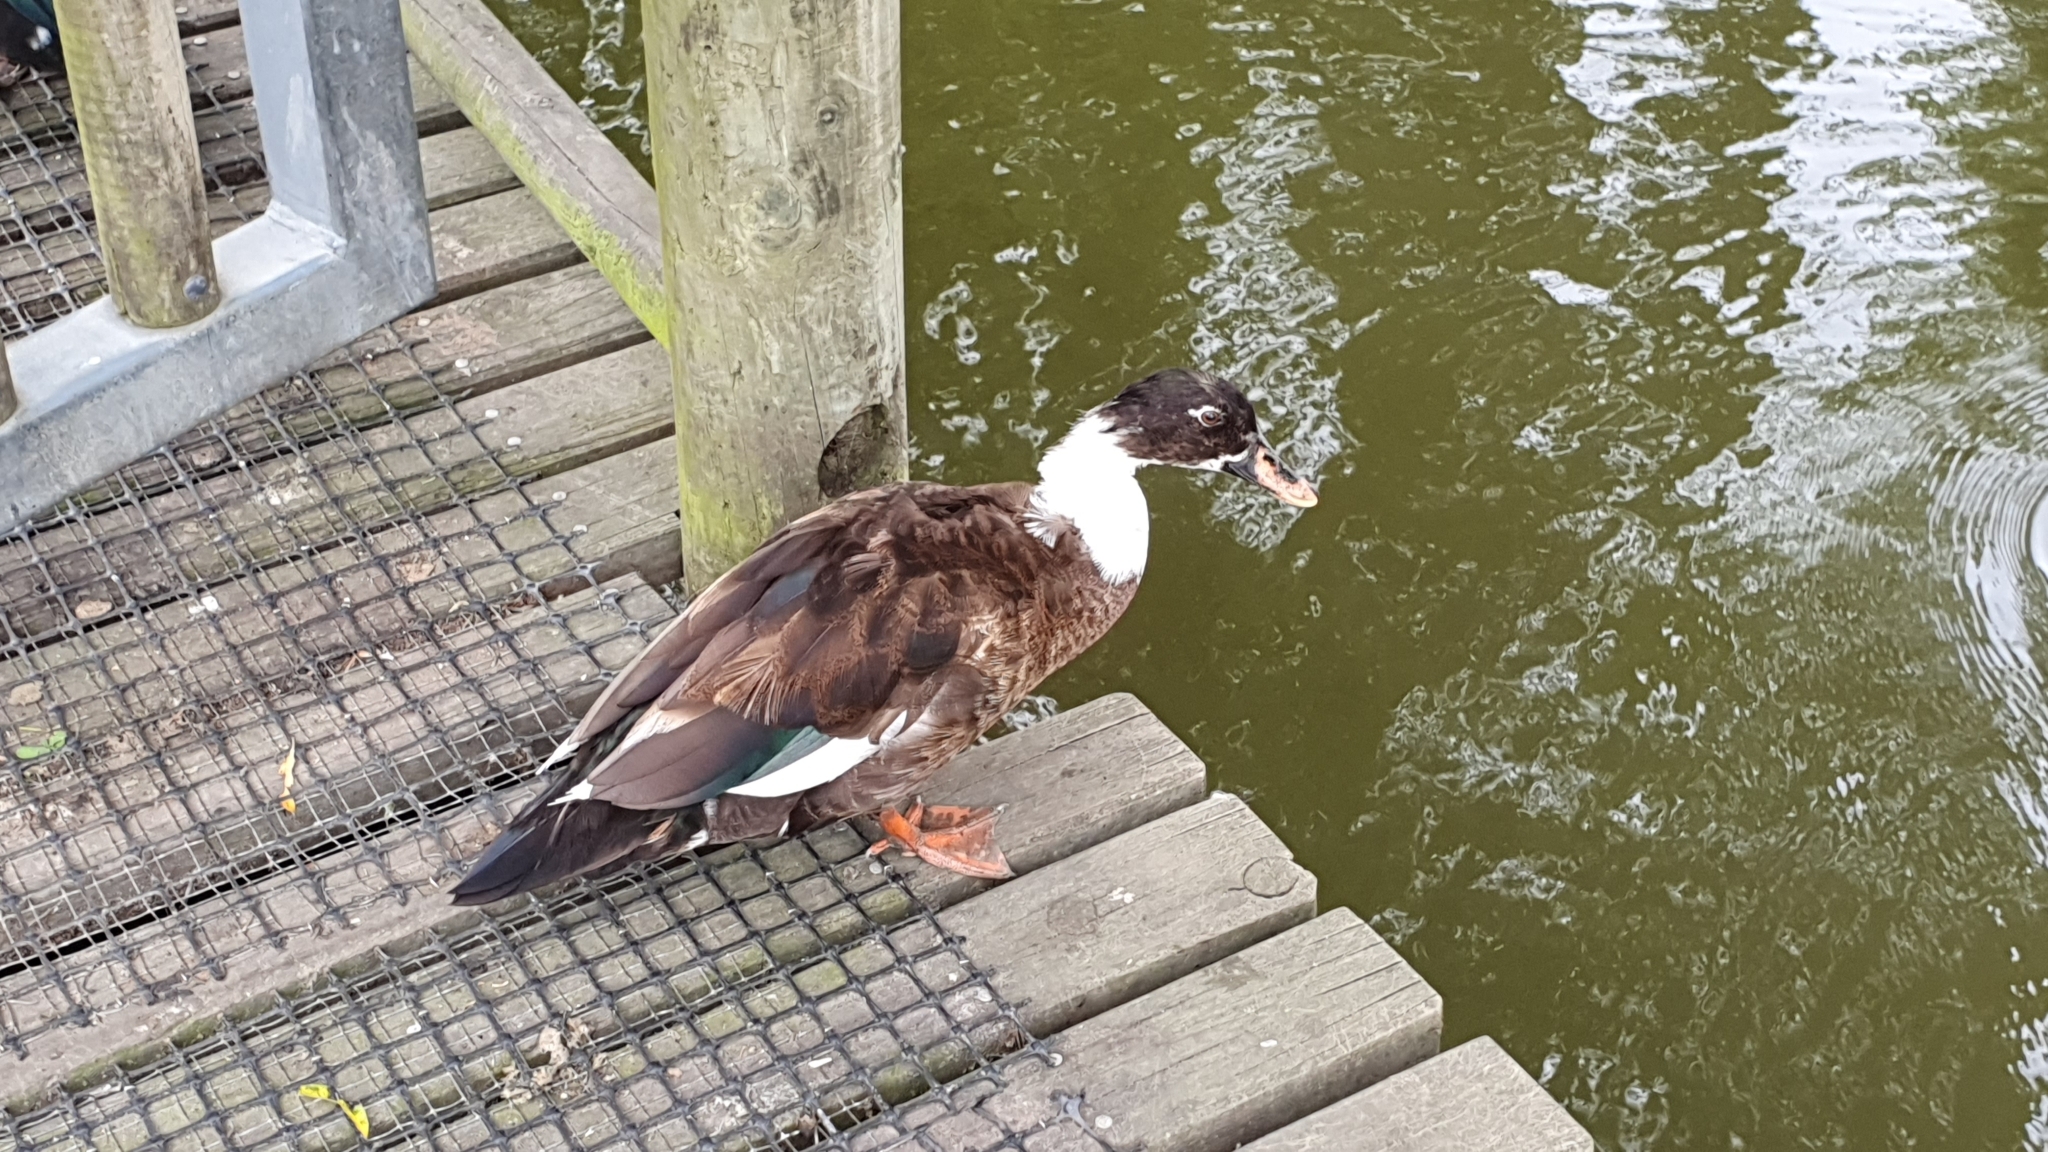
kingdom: Animalia
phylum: Chordata
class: Aves
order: Anseriformes
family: Anatidae
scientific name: Anatidae
